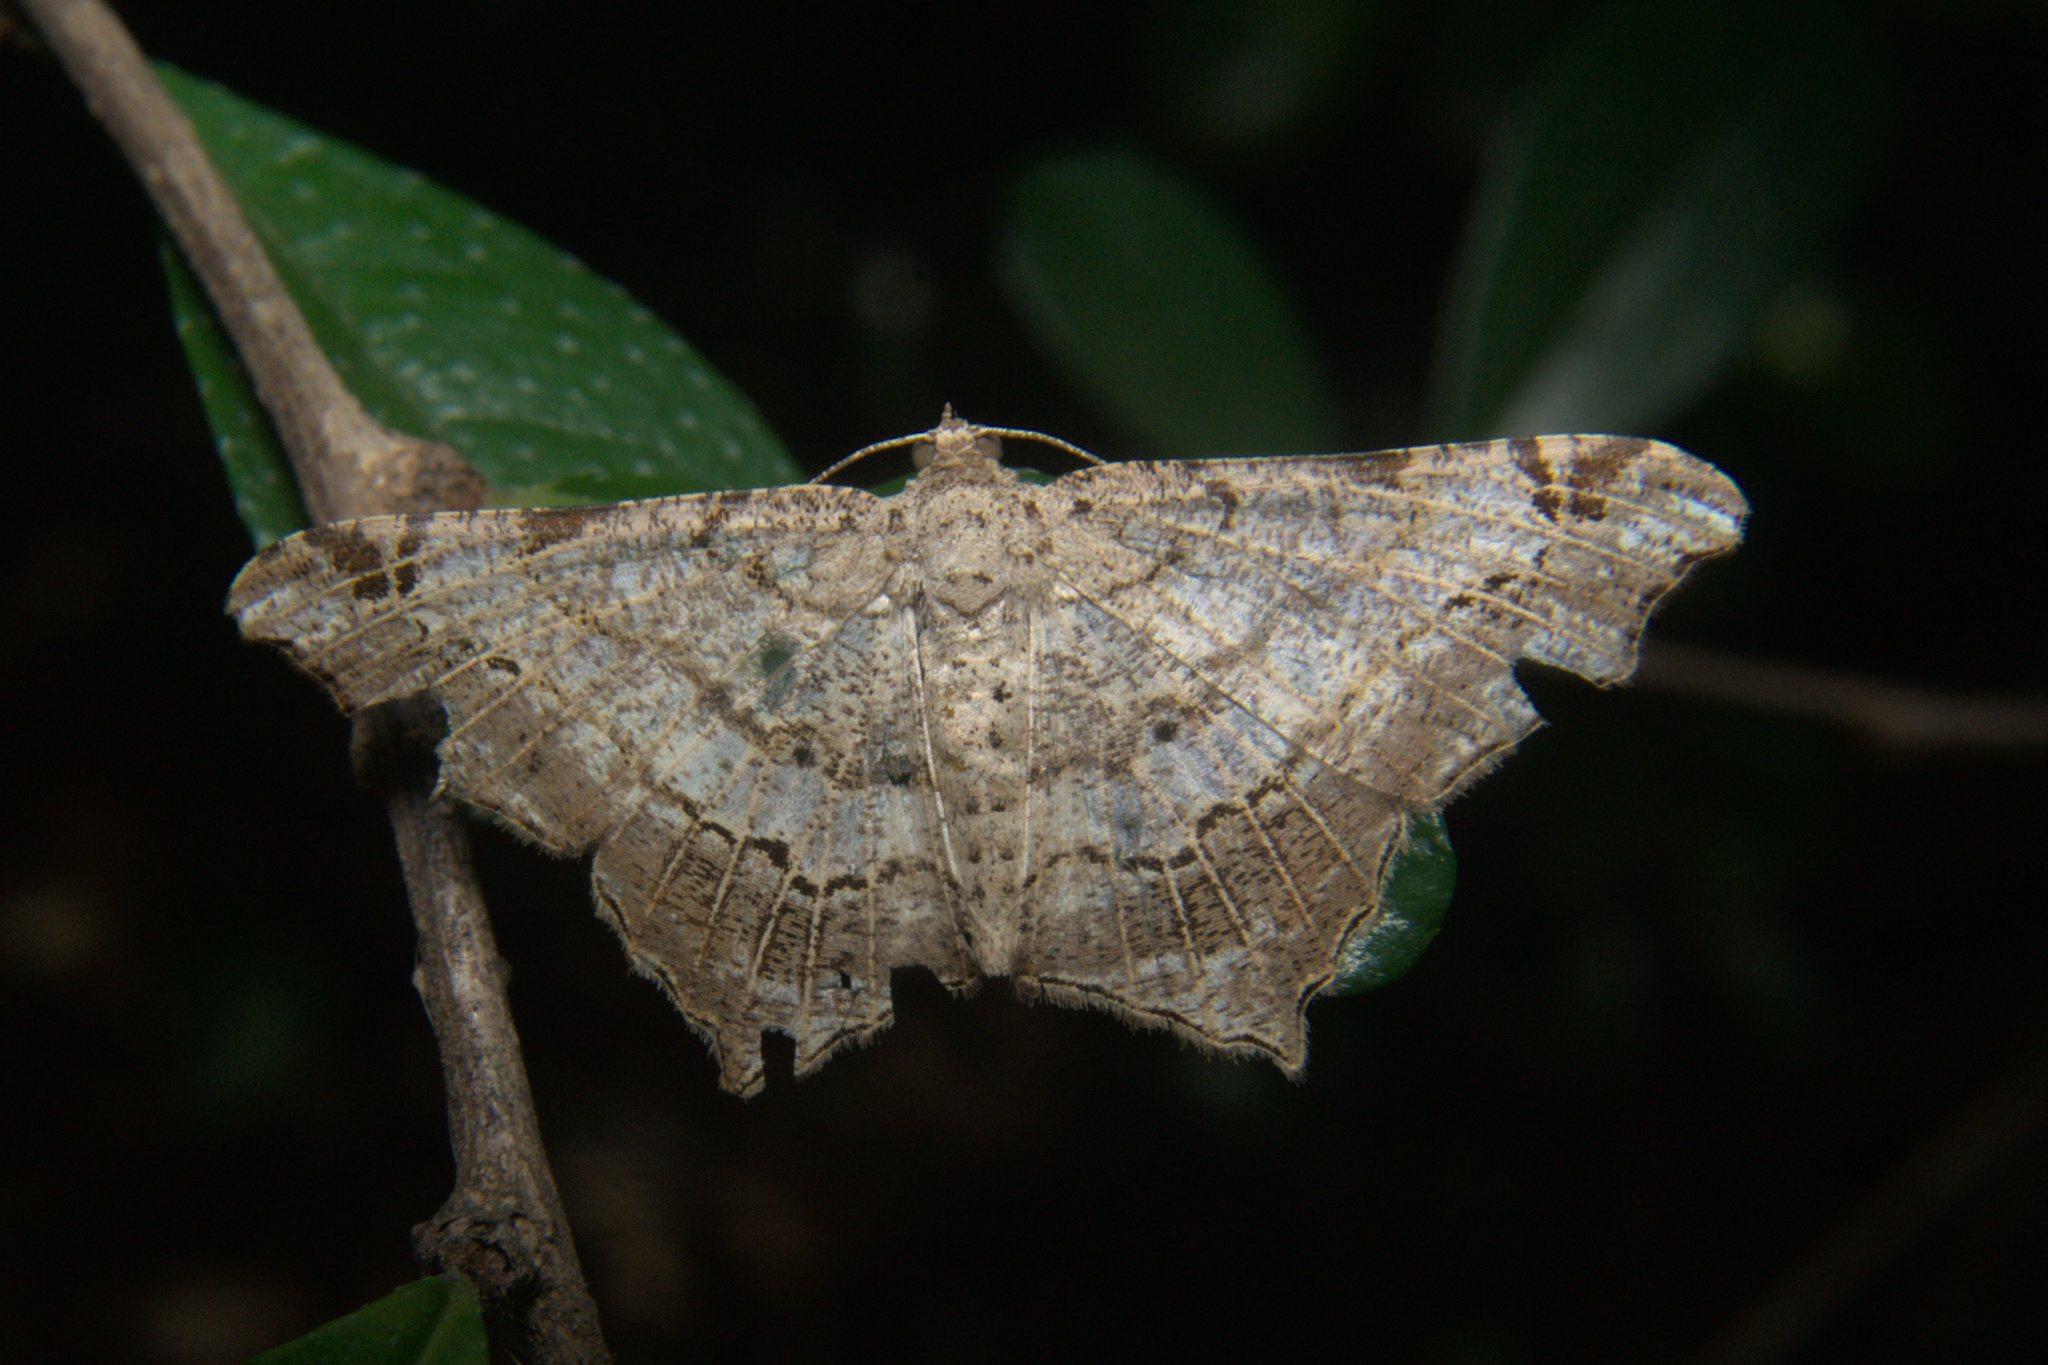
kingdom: Animalia
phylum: Arthropoda
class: Insecta
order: Lepidoptera
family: Geometridae
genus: Chiasmia
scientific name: Chiasmia emersaria
